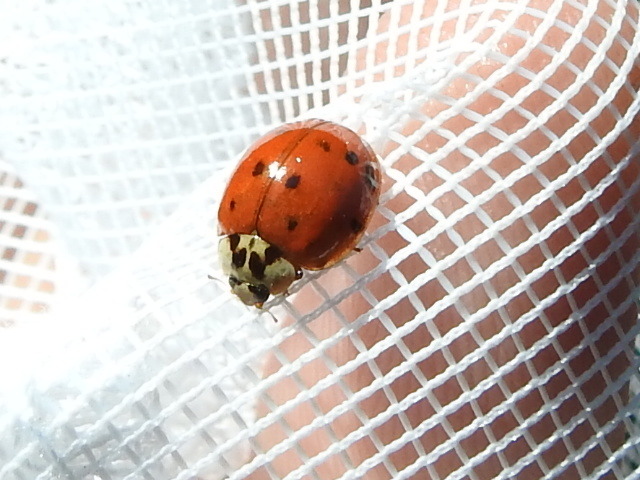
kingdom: Animalia
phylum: Arthropoda
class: Insecta
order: Coleoptera
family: Coccinellidae
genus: Harmonia
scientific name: Harmonia axyridis
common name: Harlequin ladybird
